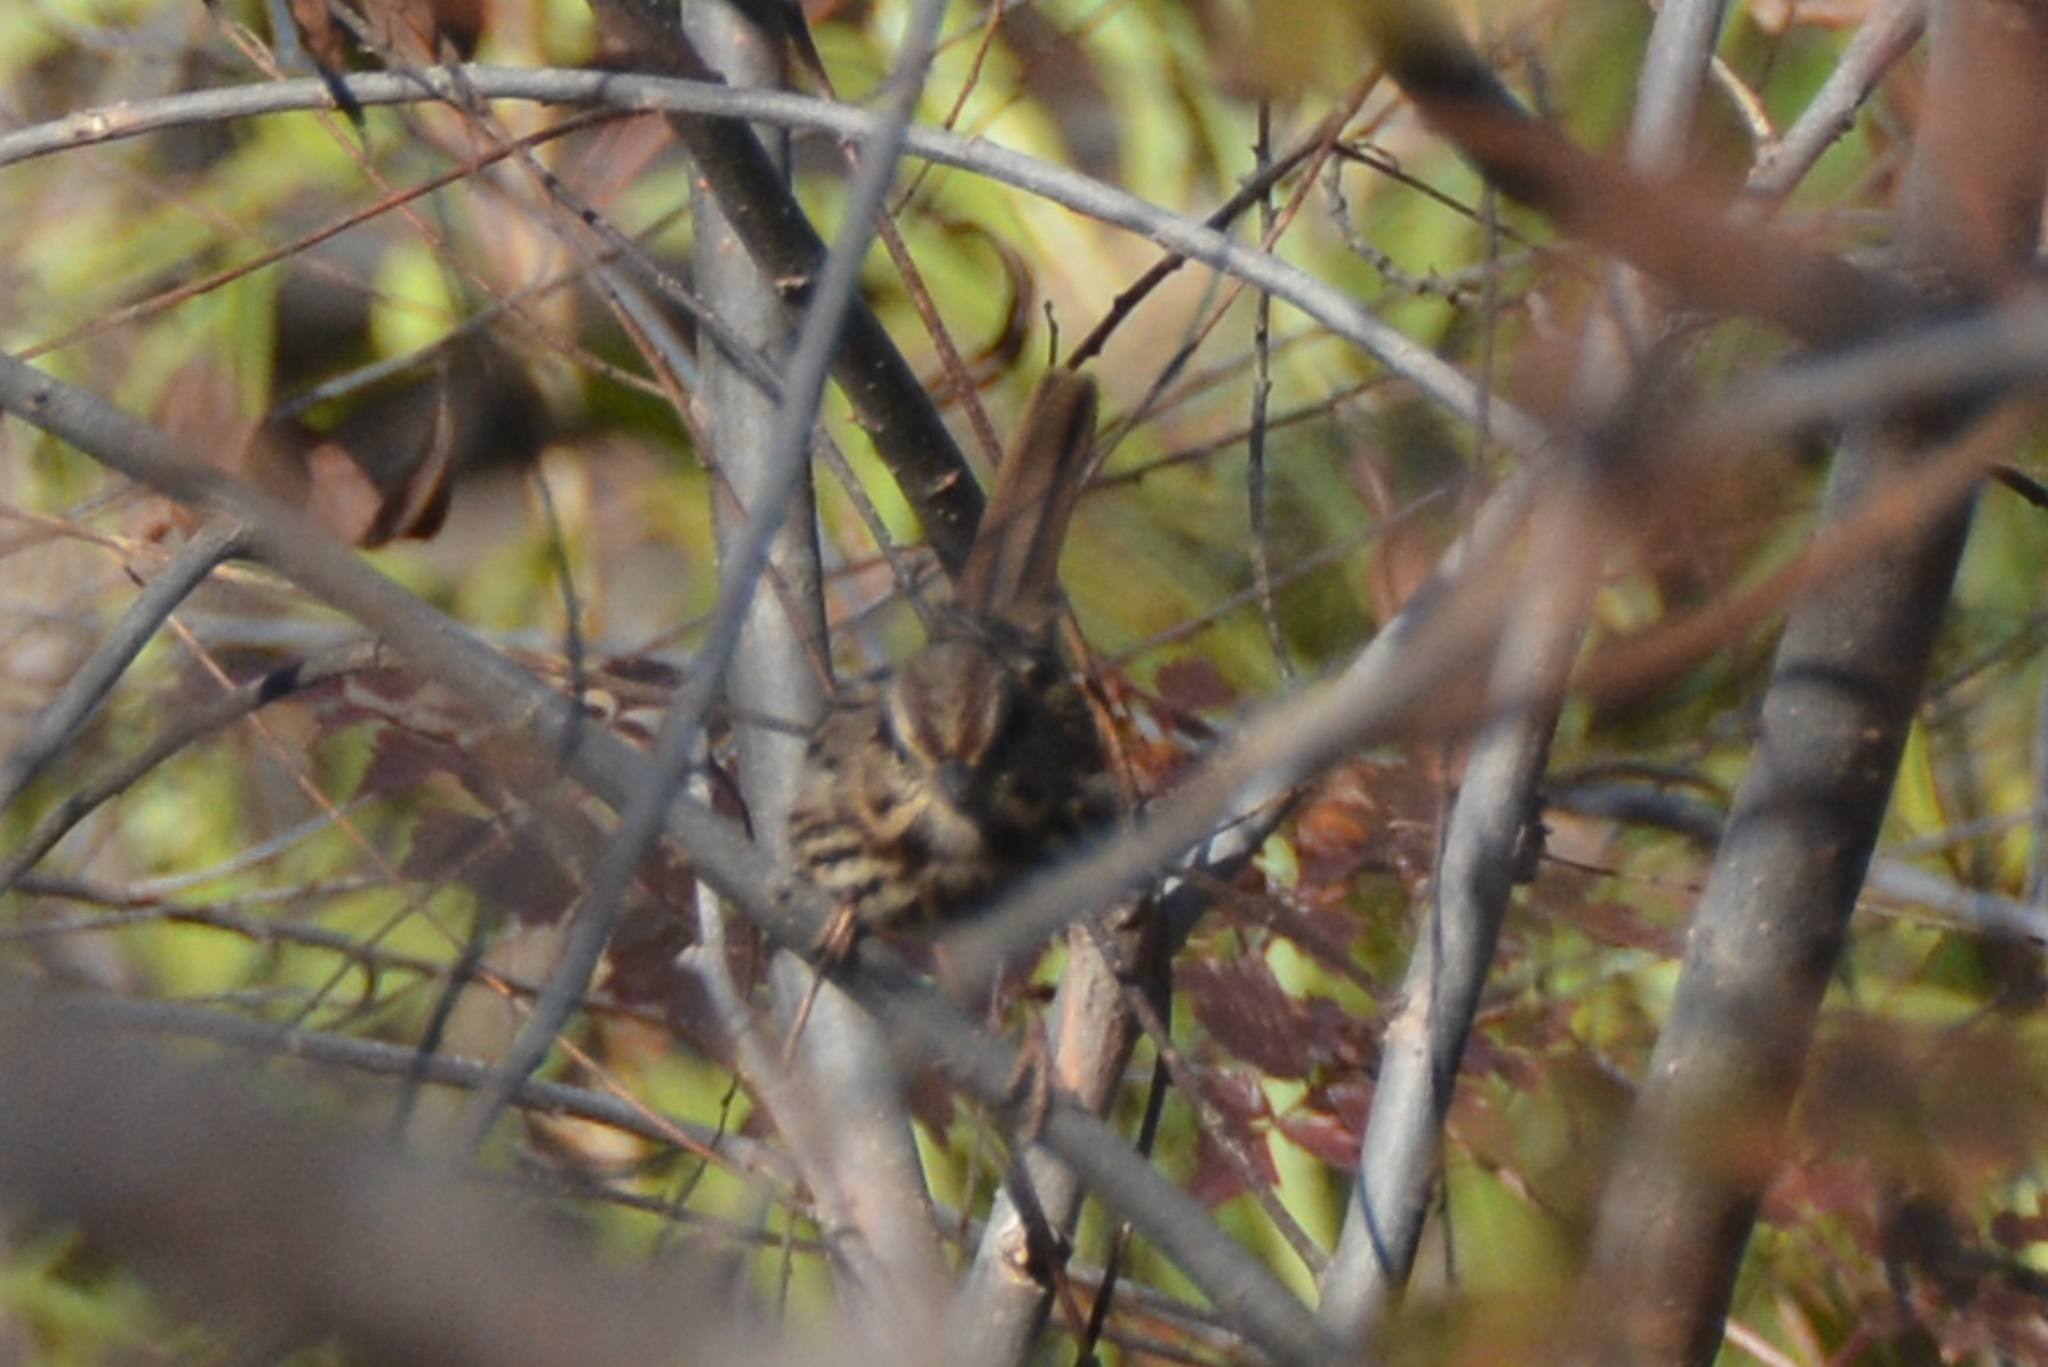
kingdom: Animalia
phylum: Chordata
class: Aves
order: Passeriformes
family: Passerellidae
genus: Melospiza
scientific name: Melospiza melodia
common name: Song sparrow
